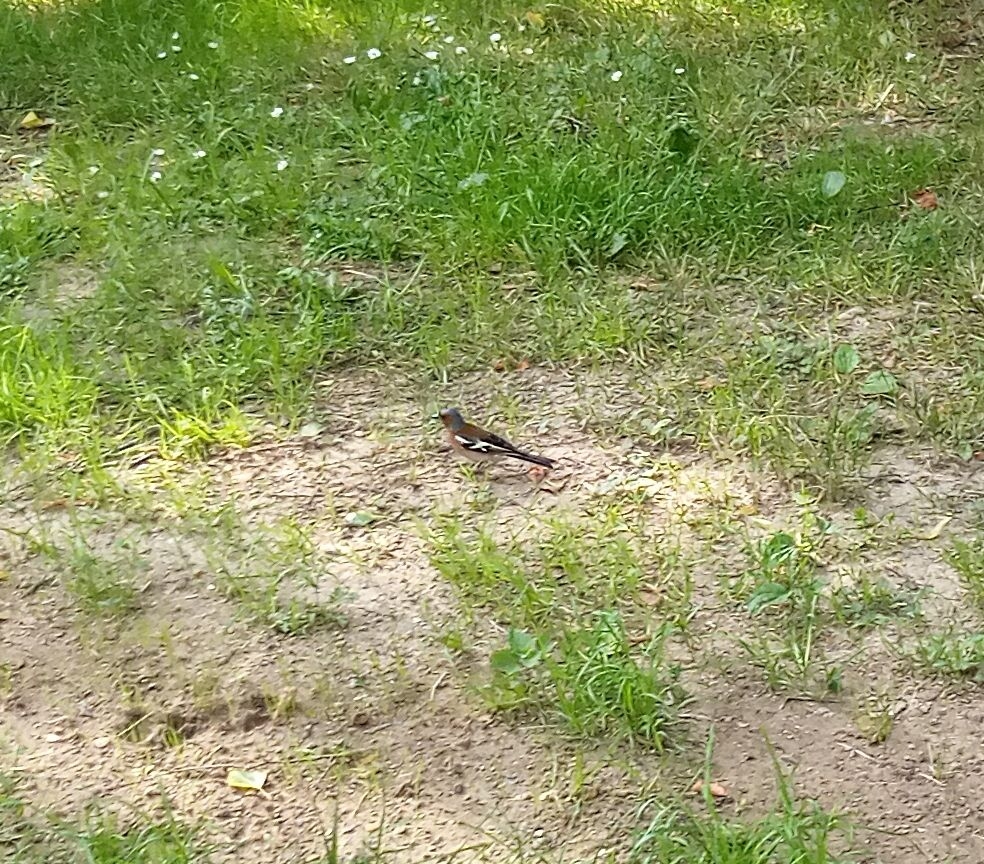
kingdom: Animalia
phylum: Chordata
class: Aves
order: Passeriformes
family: Fringillidae
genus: Fringilla
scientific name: Fringilla coelebs
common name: Common chaffinch
